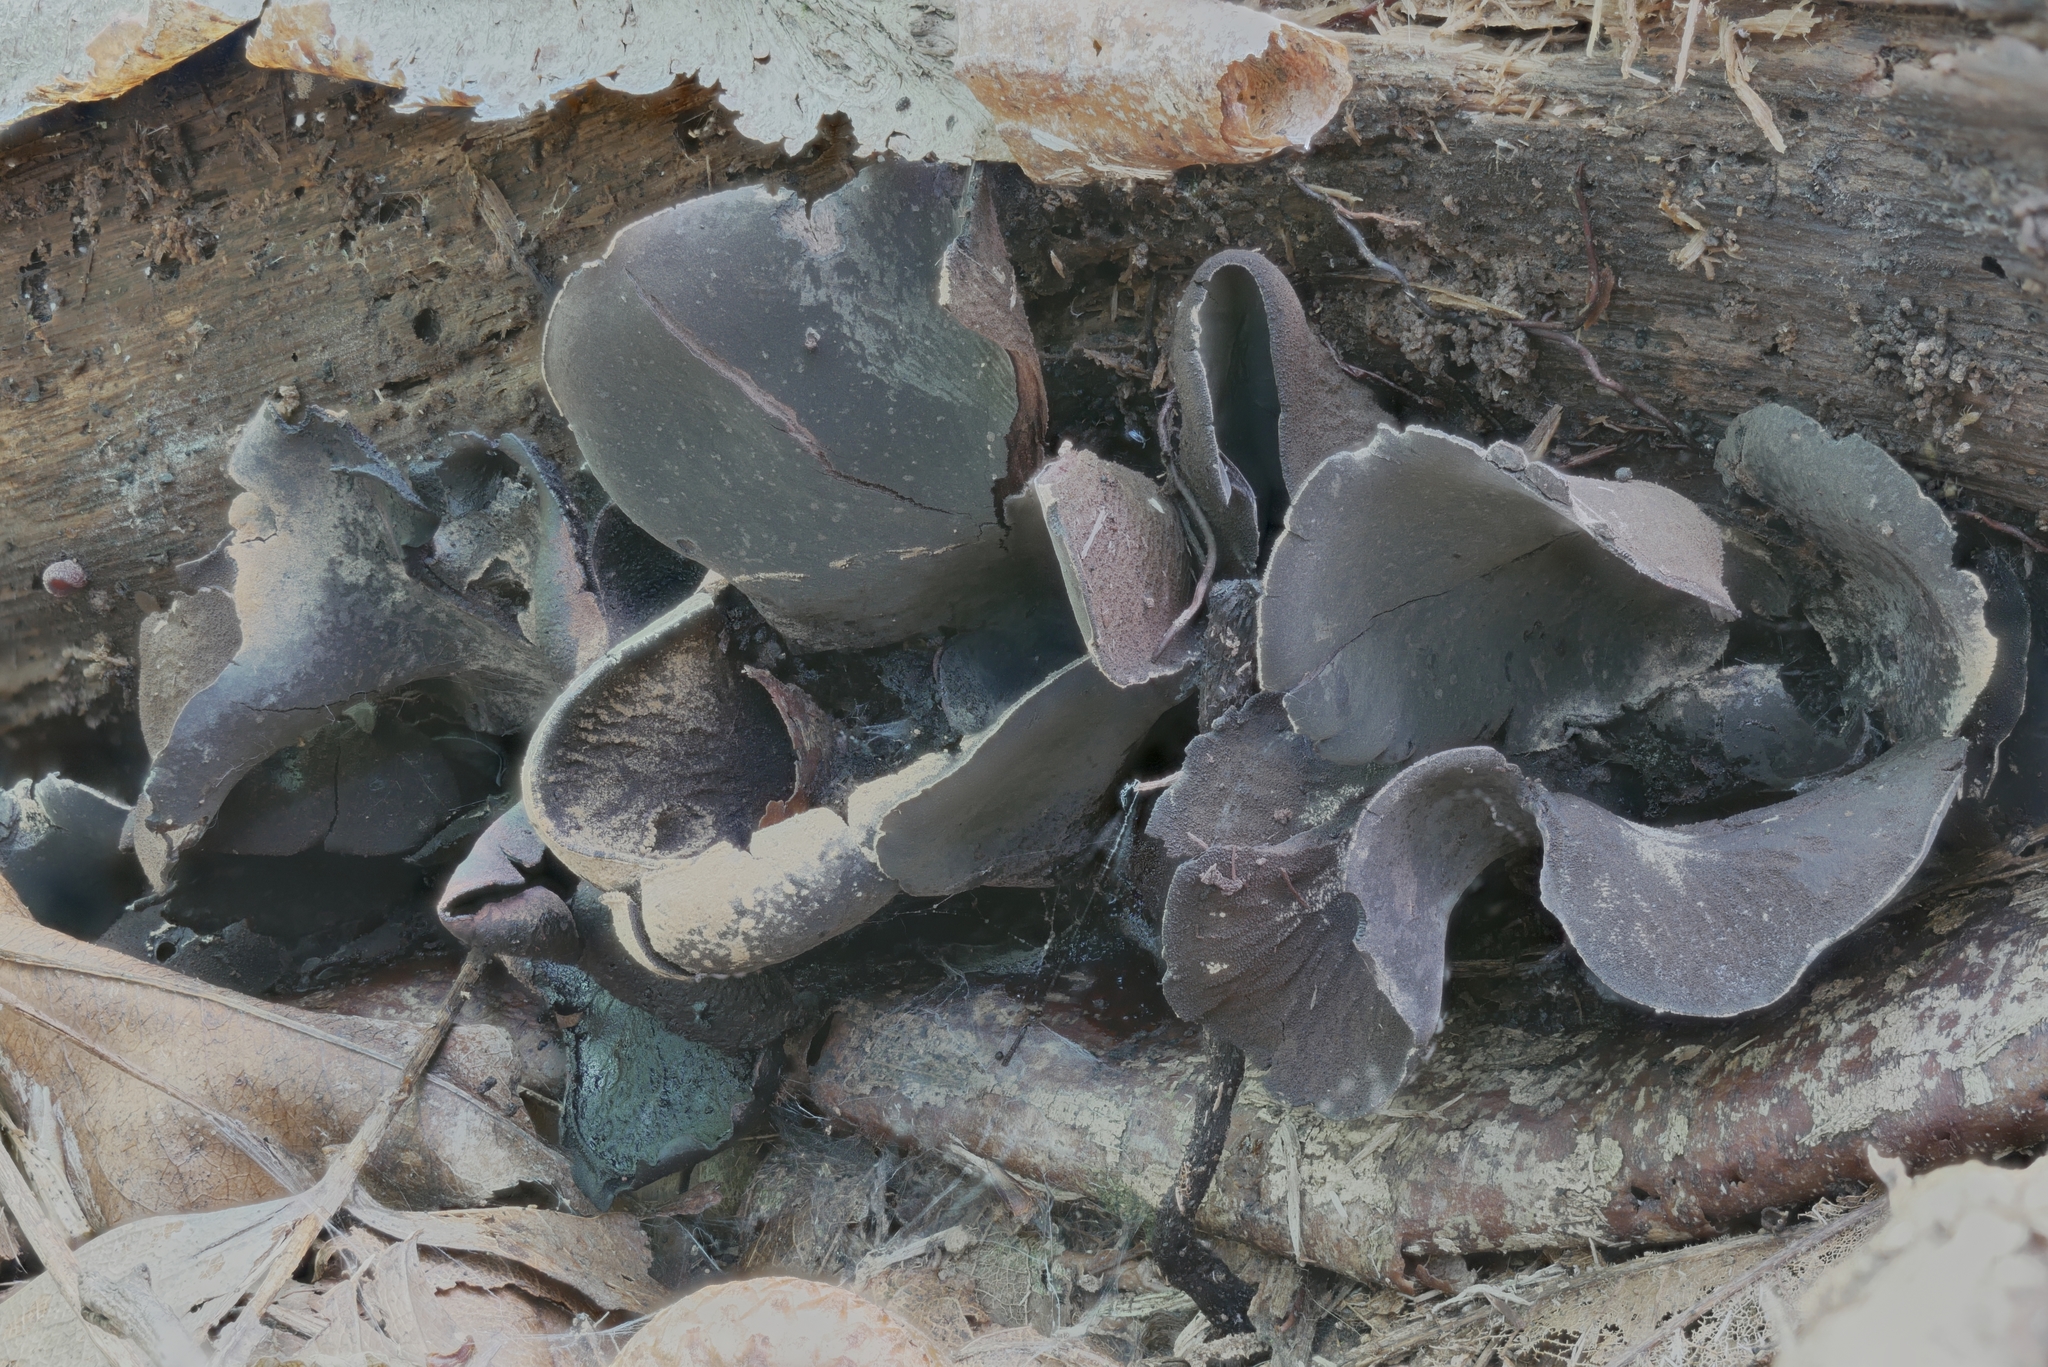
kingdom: Fungi
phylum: Ascomycota
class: Leotiomycetes
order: Helotiales
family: Cordieritidaceae
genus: Diplocarpa
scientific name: Diplocarpa irregularis
